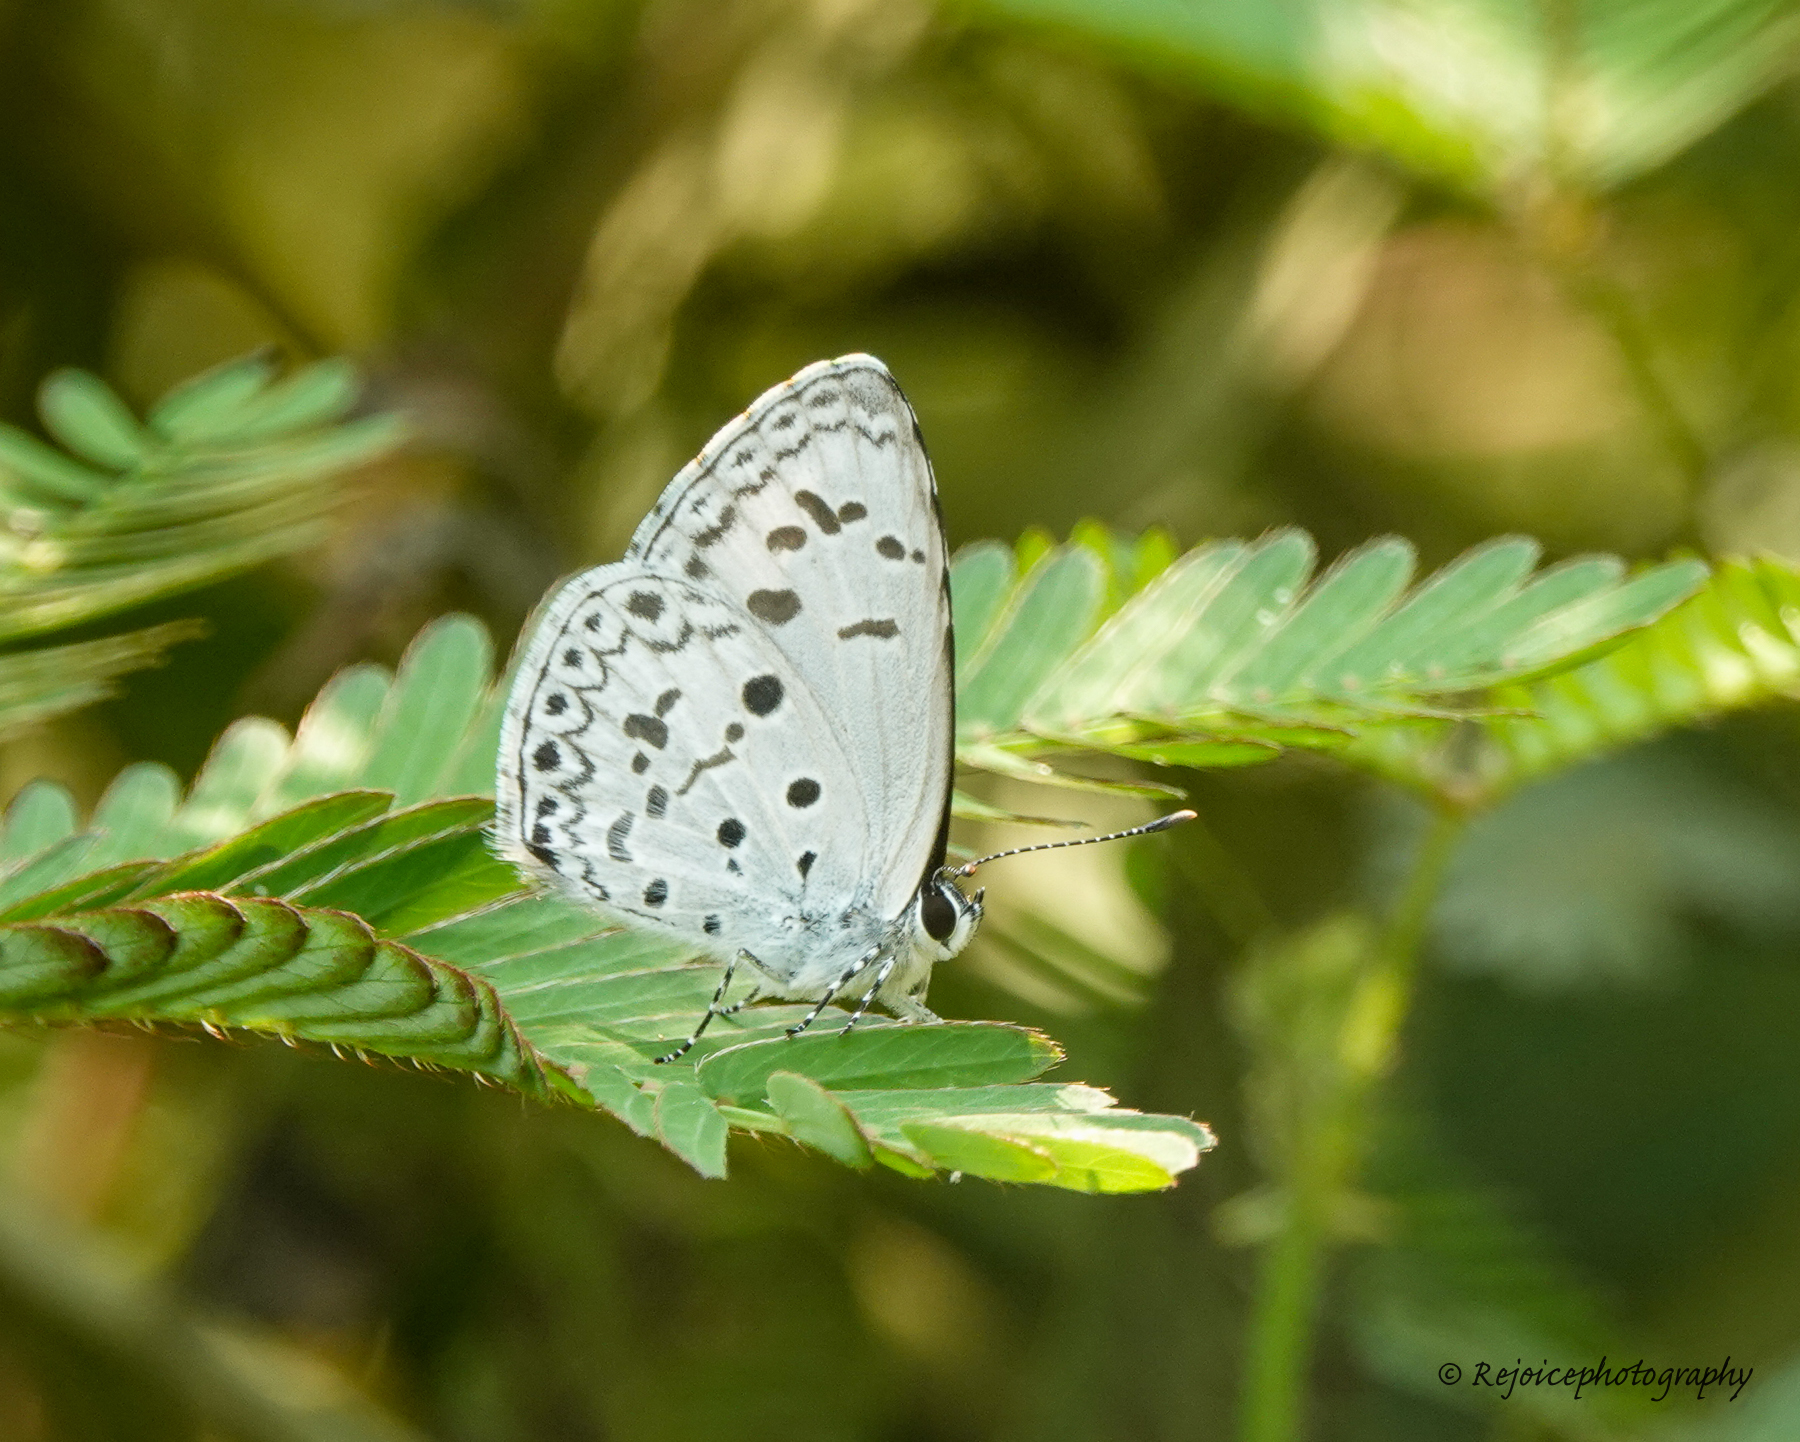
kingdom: Animalia
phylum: Arthropoda
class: Insecta
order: Lepidoptera
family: Lycaenidae
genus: Acytolepis
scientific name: Acytolepis puspa
